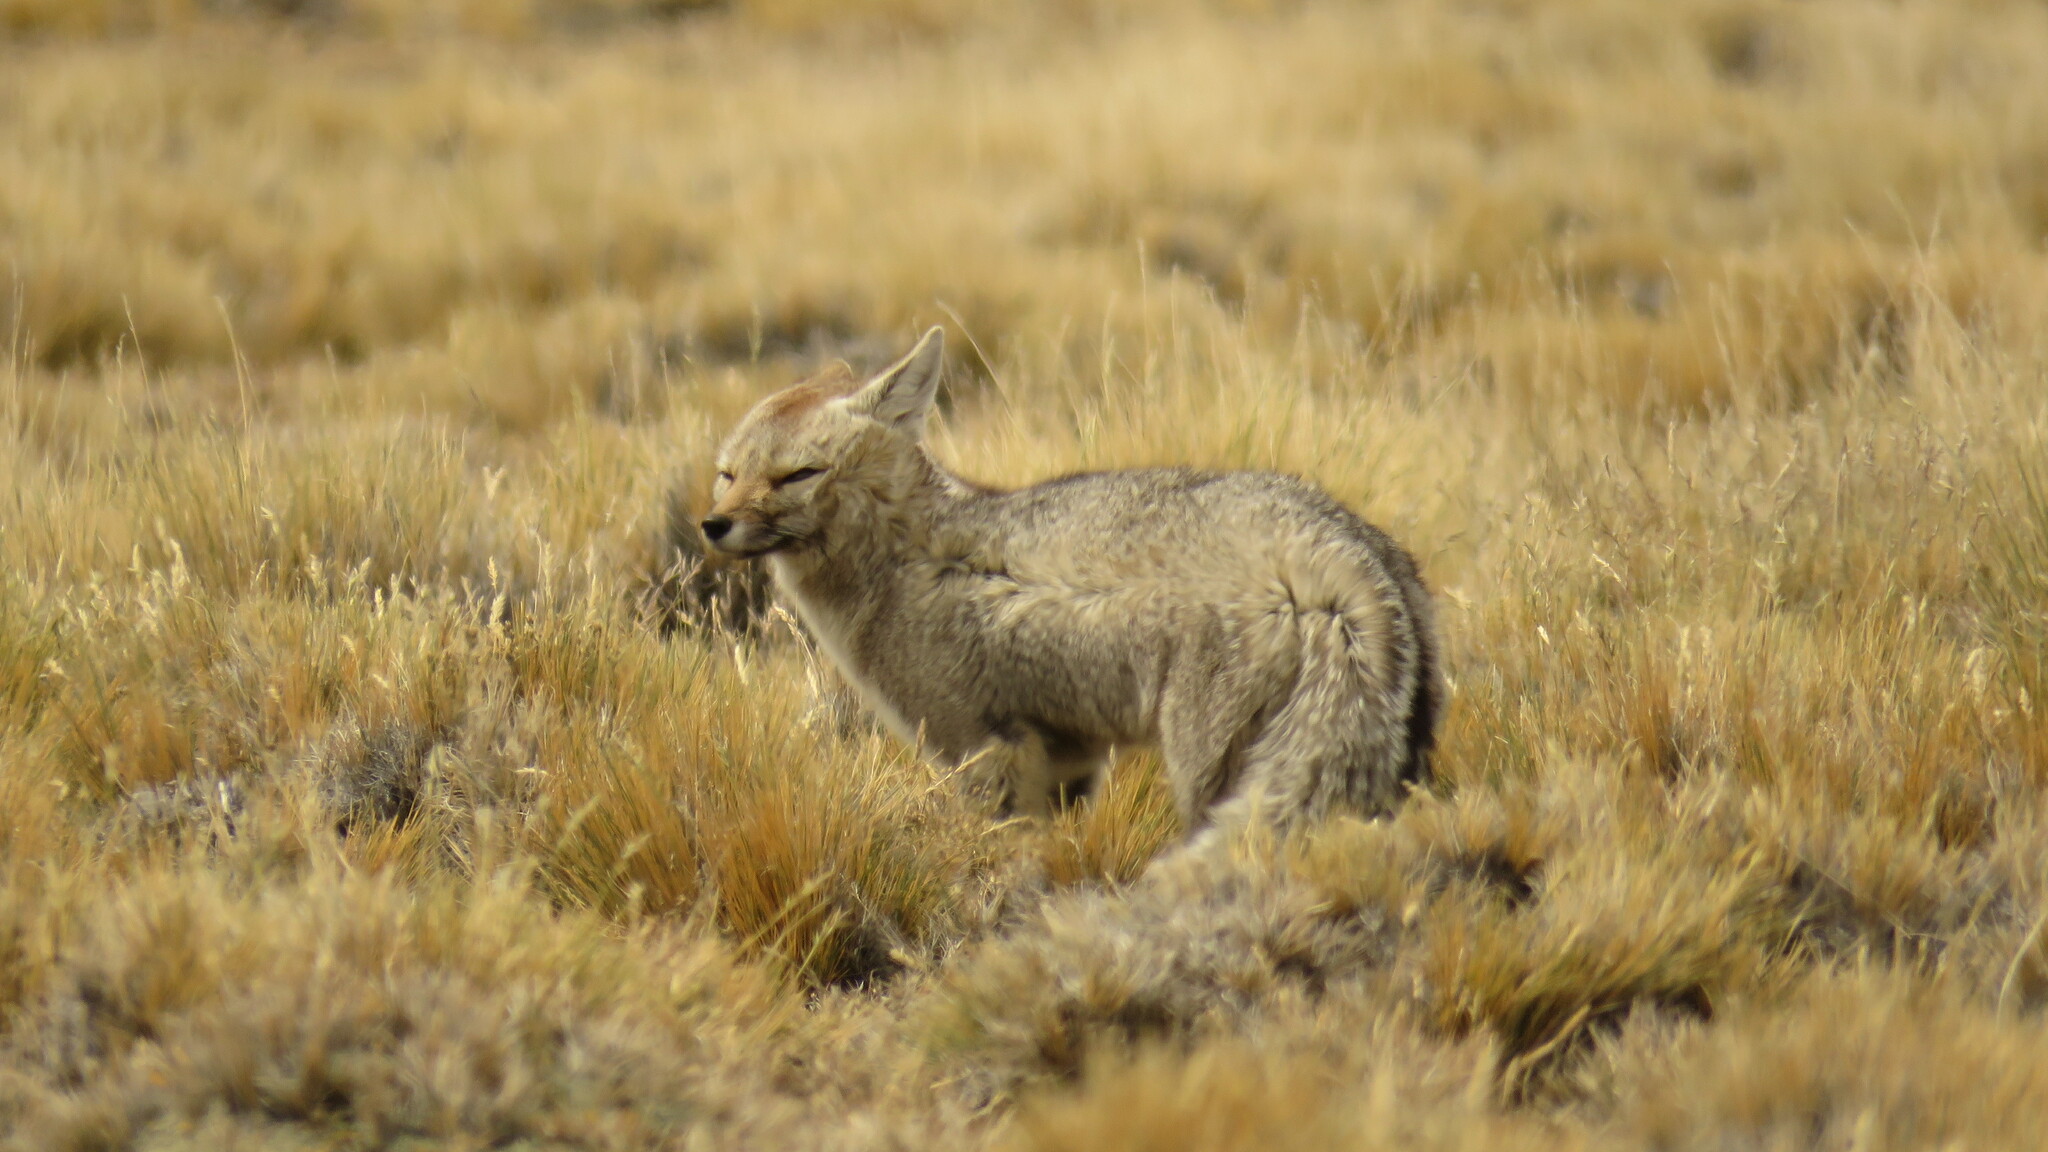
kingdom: Animalia
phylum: Chordata
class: Mammalia
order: Carnivora
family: Canidae
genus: Lycalopex
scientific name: Lycalopex gymnocercus
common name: Pampas fox
